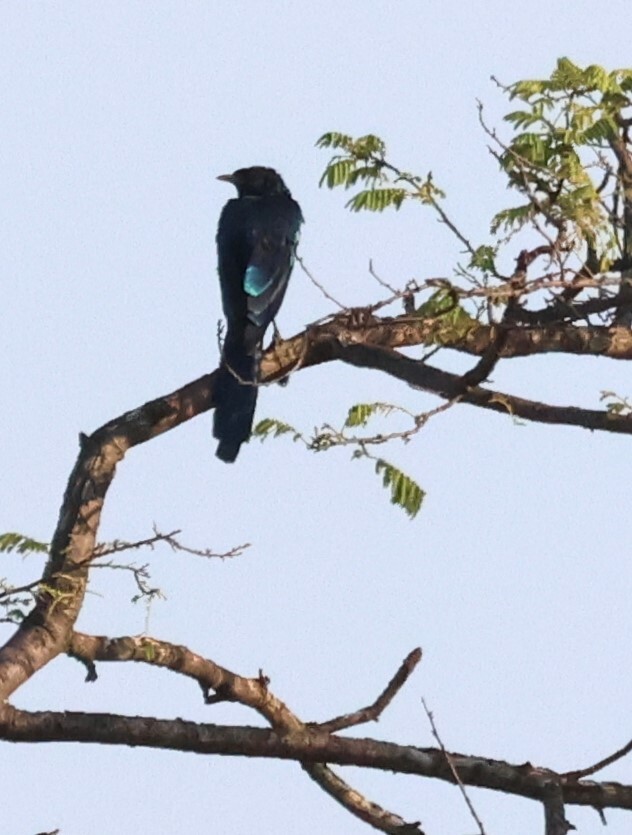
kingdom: Animalia
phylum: Chordata
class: Aves
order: Passeriformes
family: Sturnidae
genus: Lamprotornis
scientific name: Lamprotornis mevesii
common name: Meves's starling
